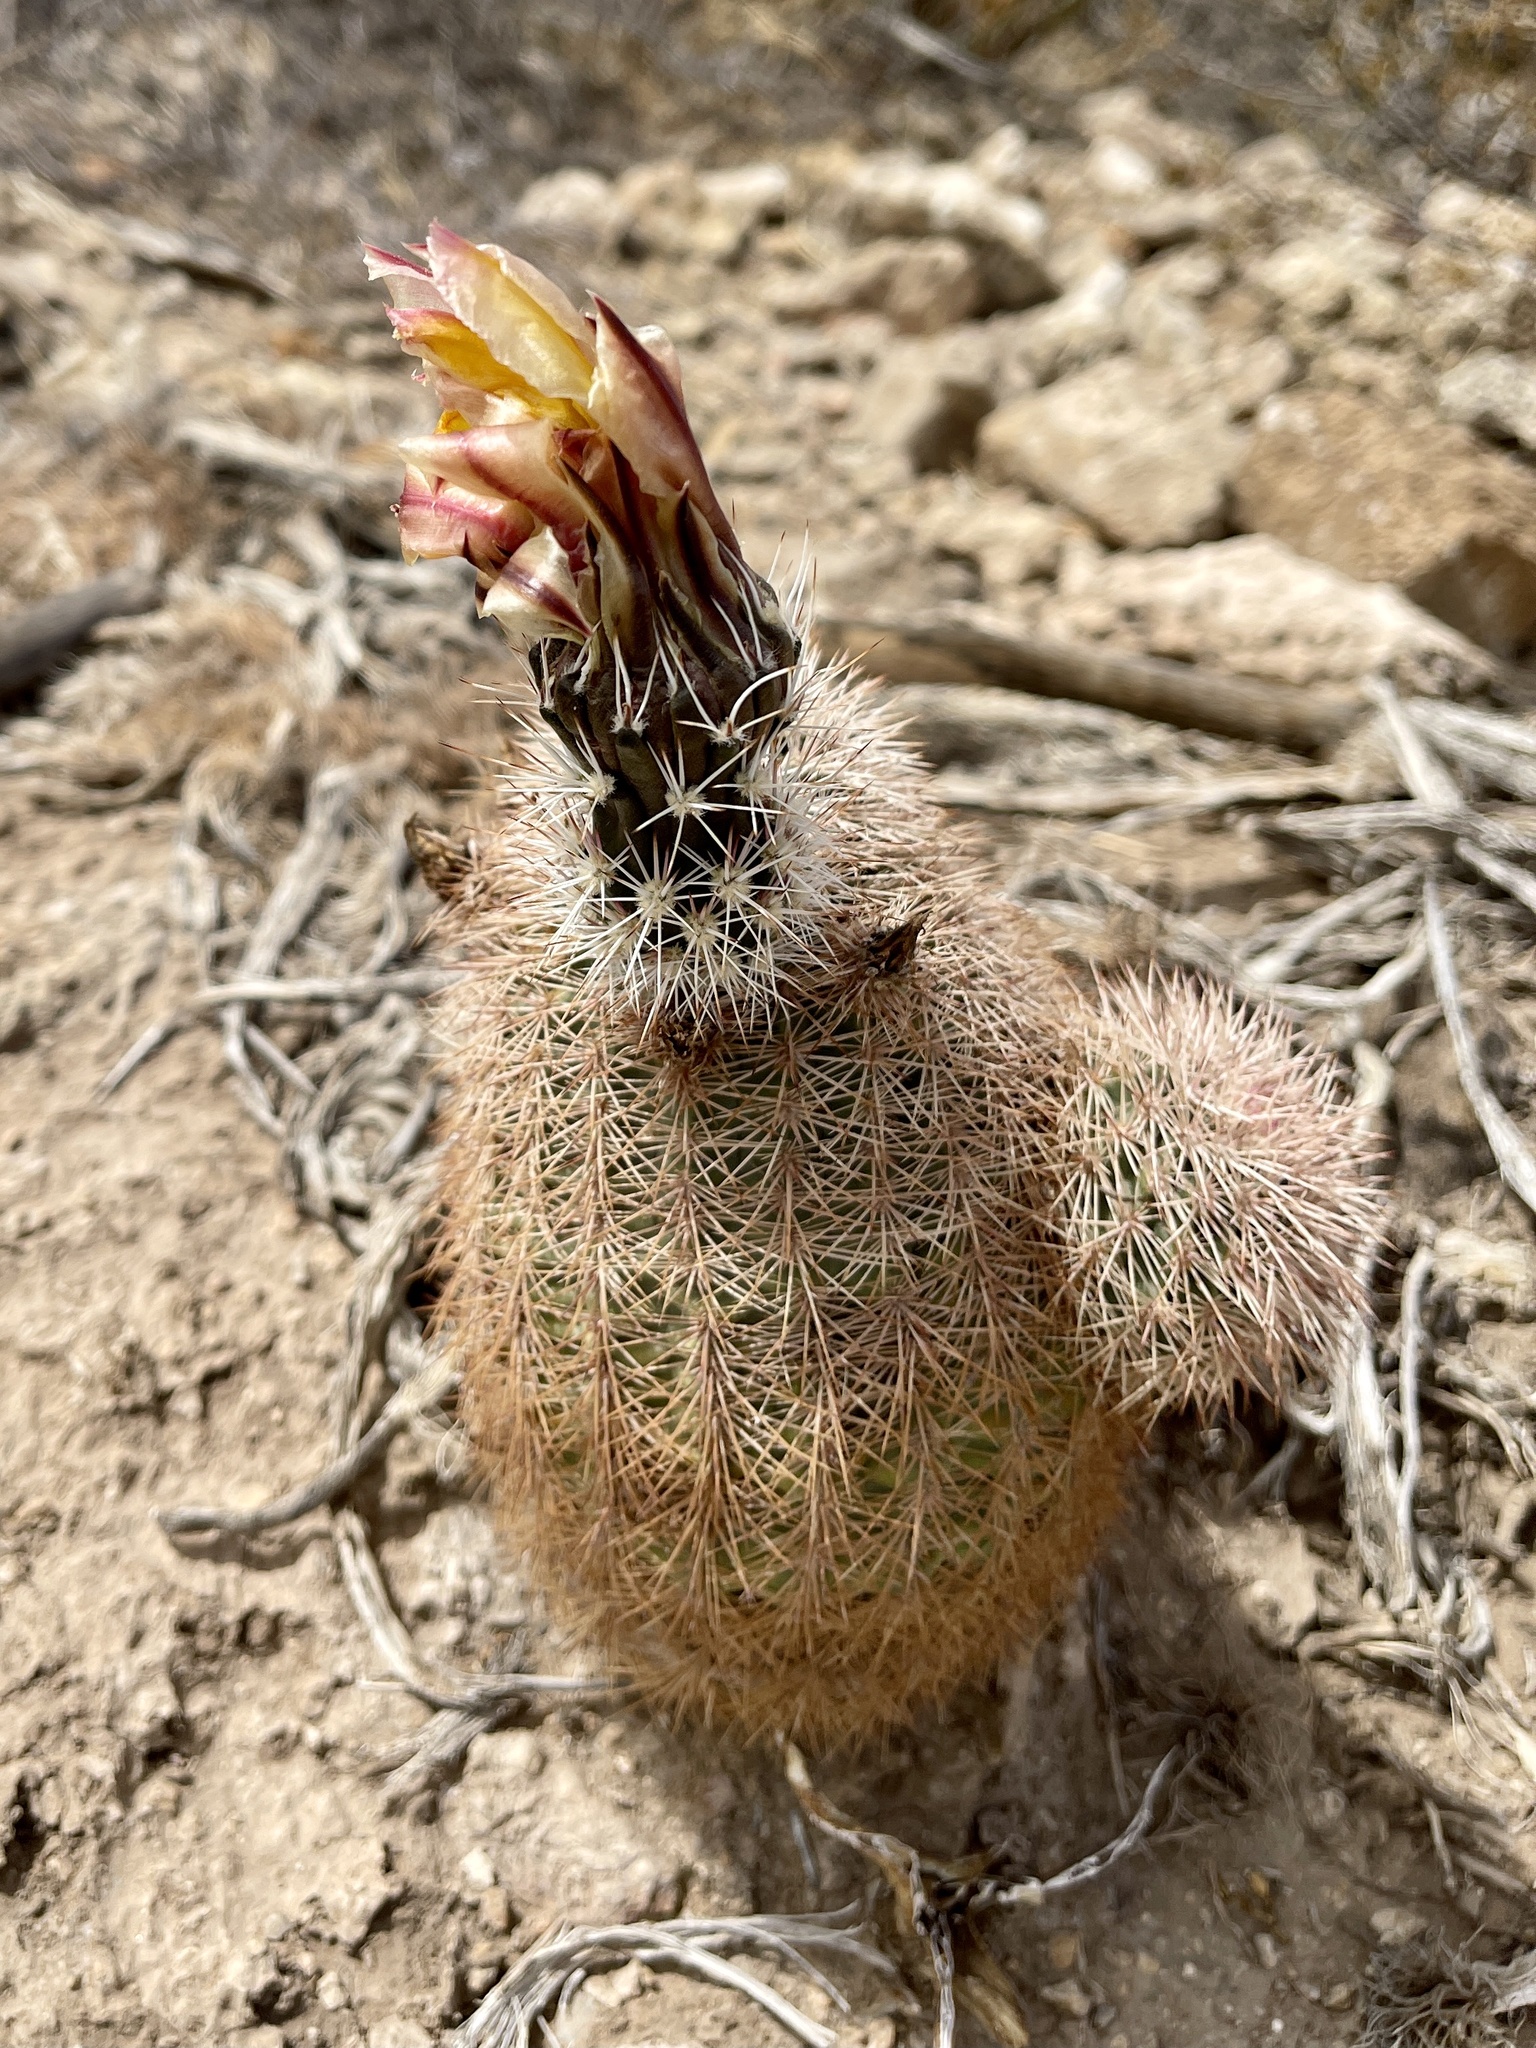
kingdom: Plantae
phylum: Tracheophyta
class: Magnoliopsida
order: Caryophyllales
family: Cactaceae
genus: Echinocereus
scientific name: Echinocereus dasyacanthus
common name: Spiny hedgehog cactus
